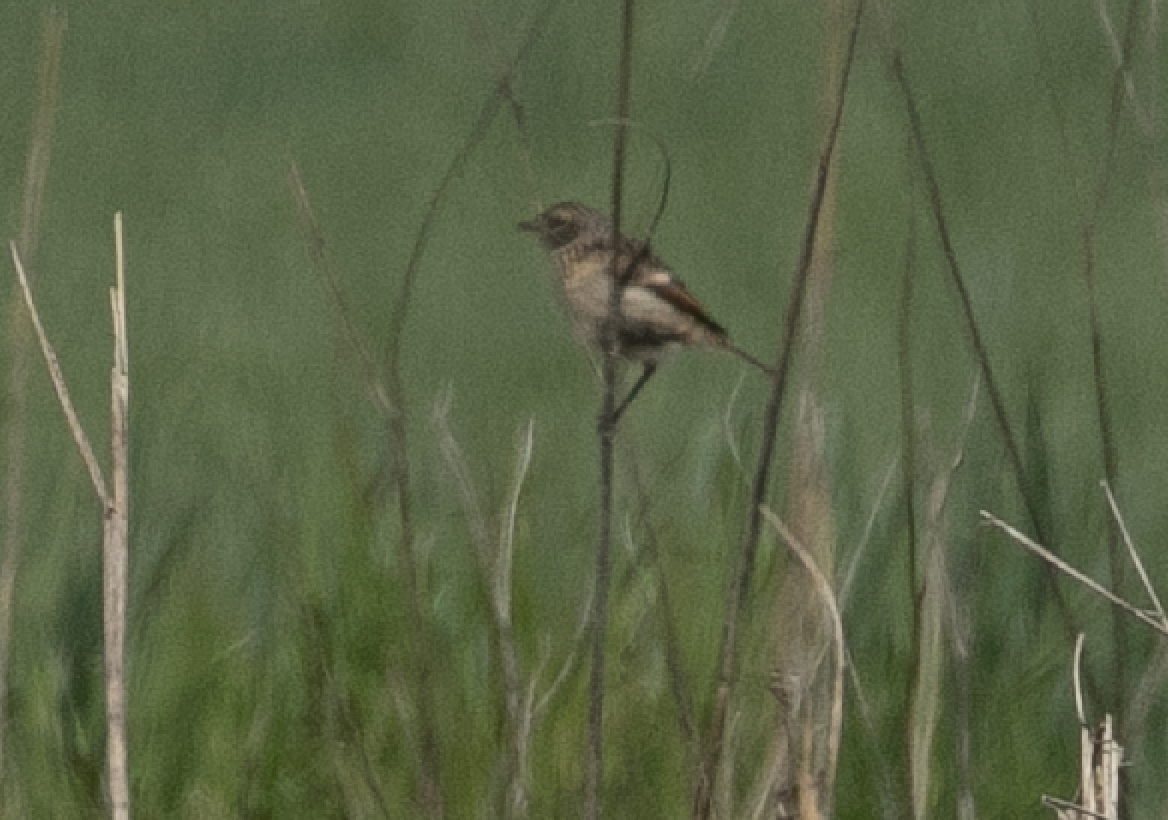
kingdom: Animalia
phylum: Chordata
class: Aves
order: Passeriformes
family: Muscicapidae
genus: Saxicola
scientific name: Saxicola rubicola
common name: European stonechat
